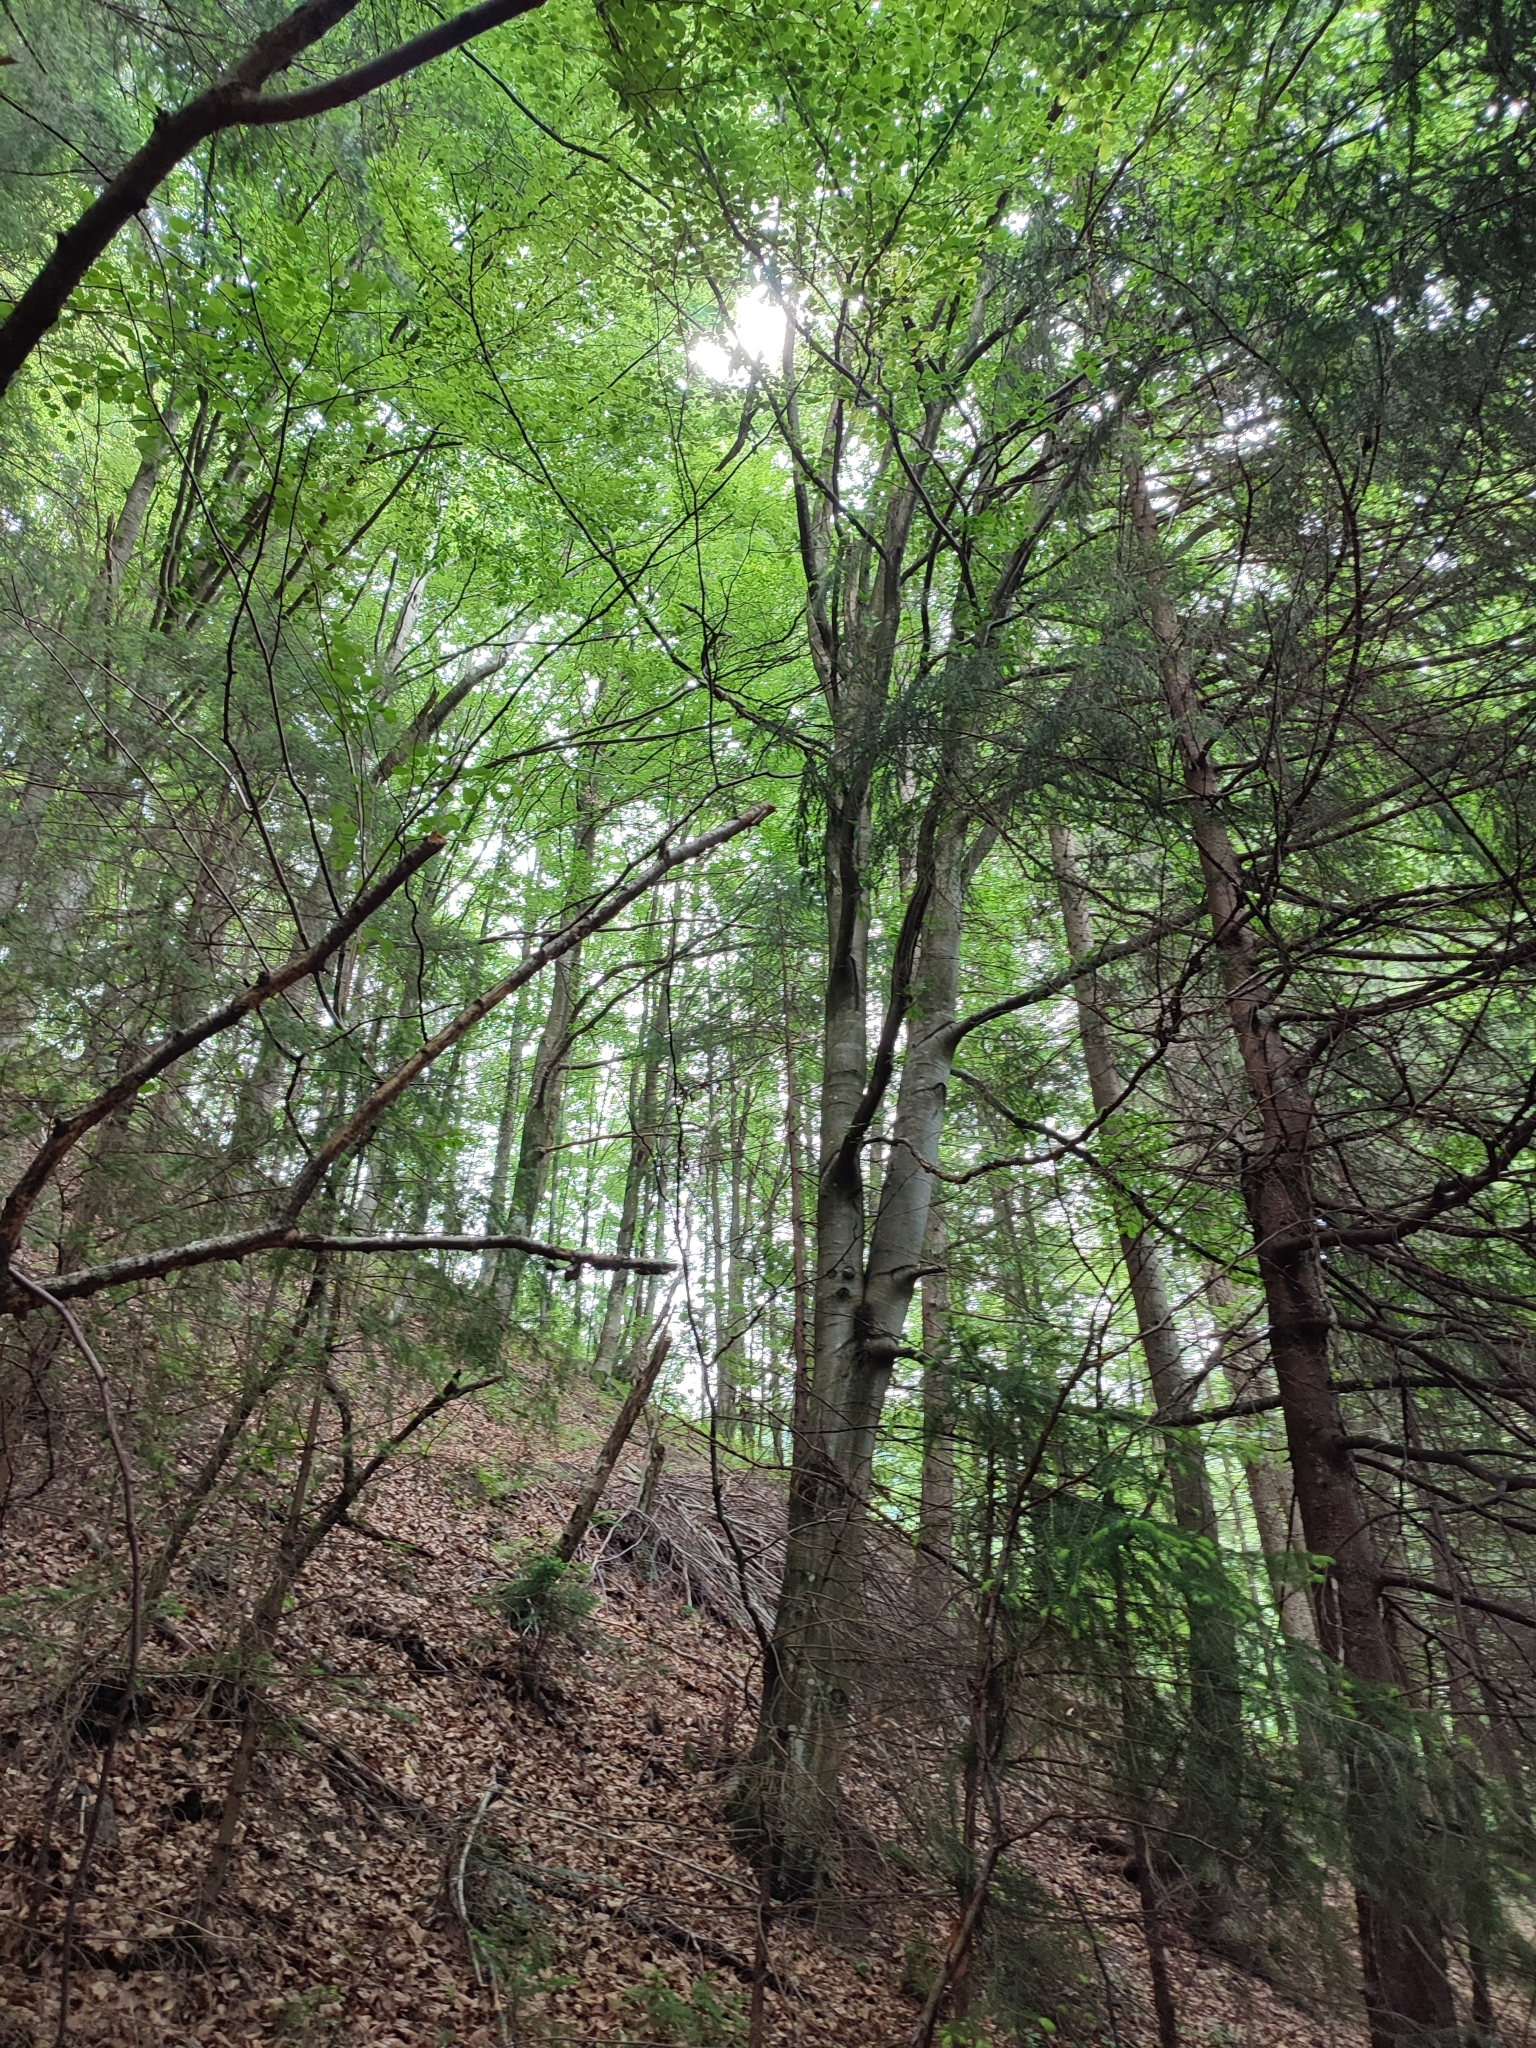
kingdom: Plantae
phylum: Tracheophyta
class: Magnoliopsida
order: Fagales
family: Fagaceae
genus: Fagus
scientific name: Fagus sylvatica
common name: Beech
